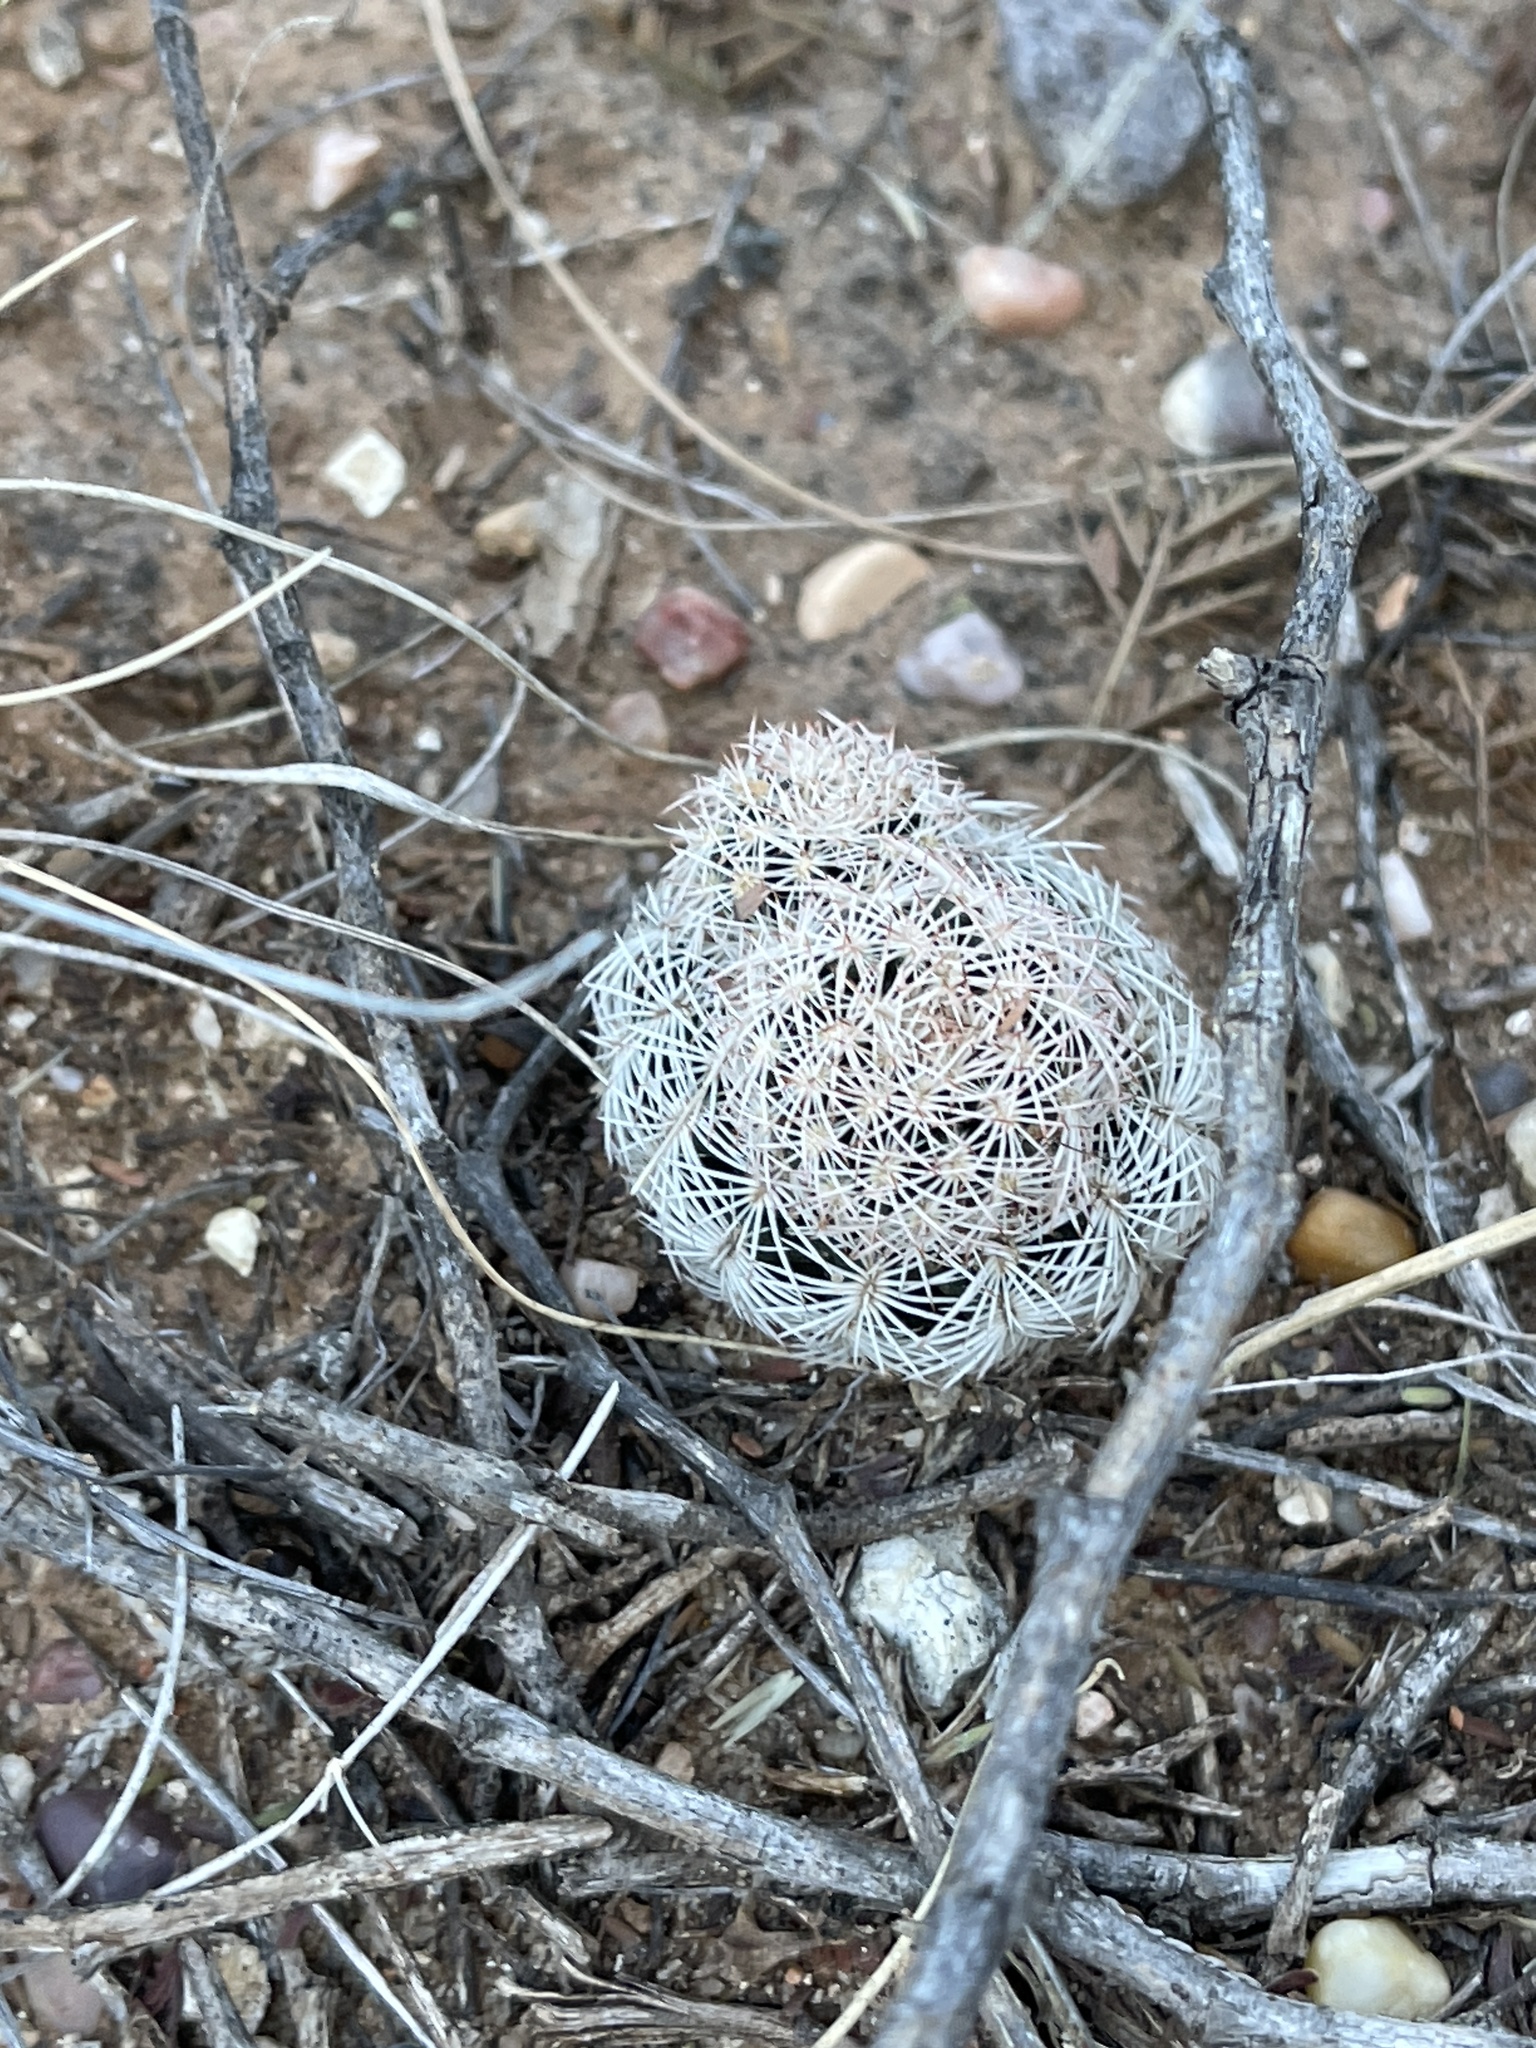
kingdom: Plantae
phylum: Tracheophyta
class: Magnoliopsida
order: Caryophyllales
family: Cactaceae
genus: Echinocereus
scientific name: Echinocereus reichenbachii
